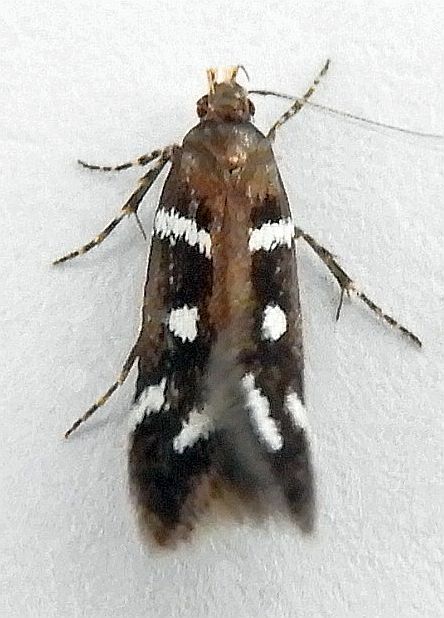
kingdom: Animalia
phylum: Arthropoda
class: Insecta
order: Lepidoptera
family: Gelechiidae
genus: Chionodes
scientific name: Chionodes naevus
